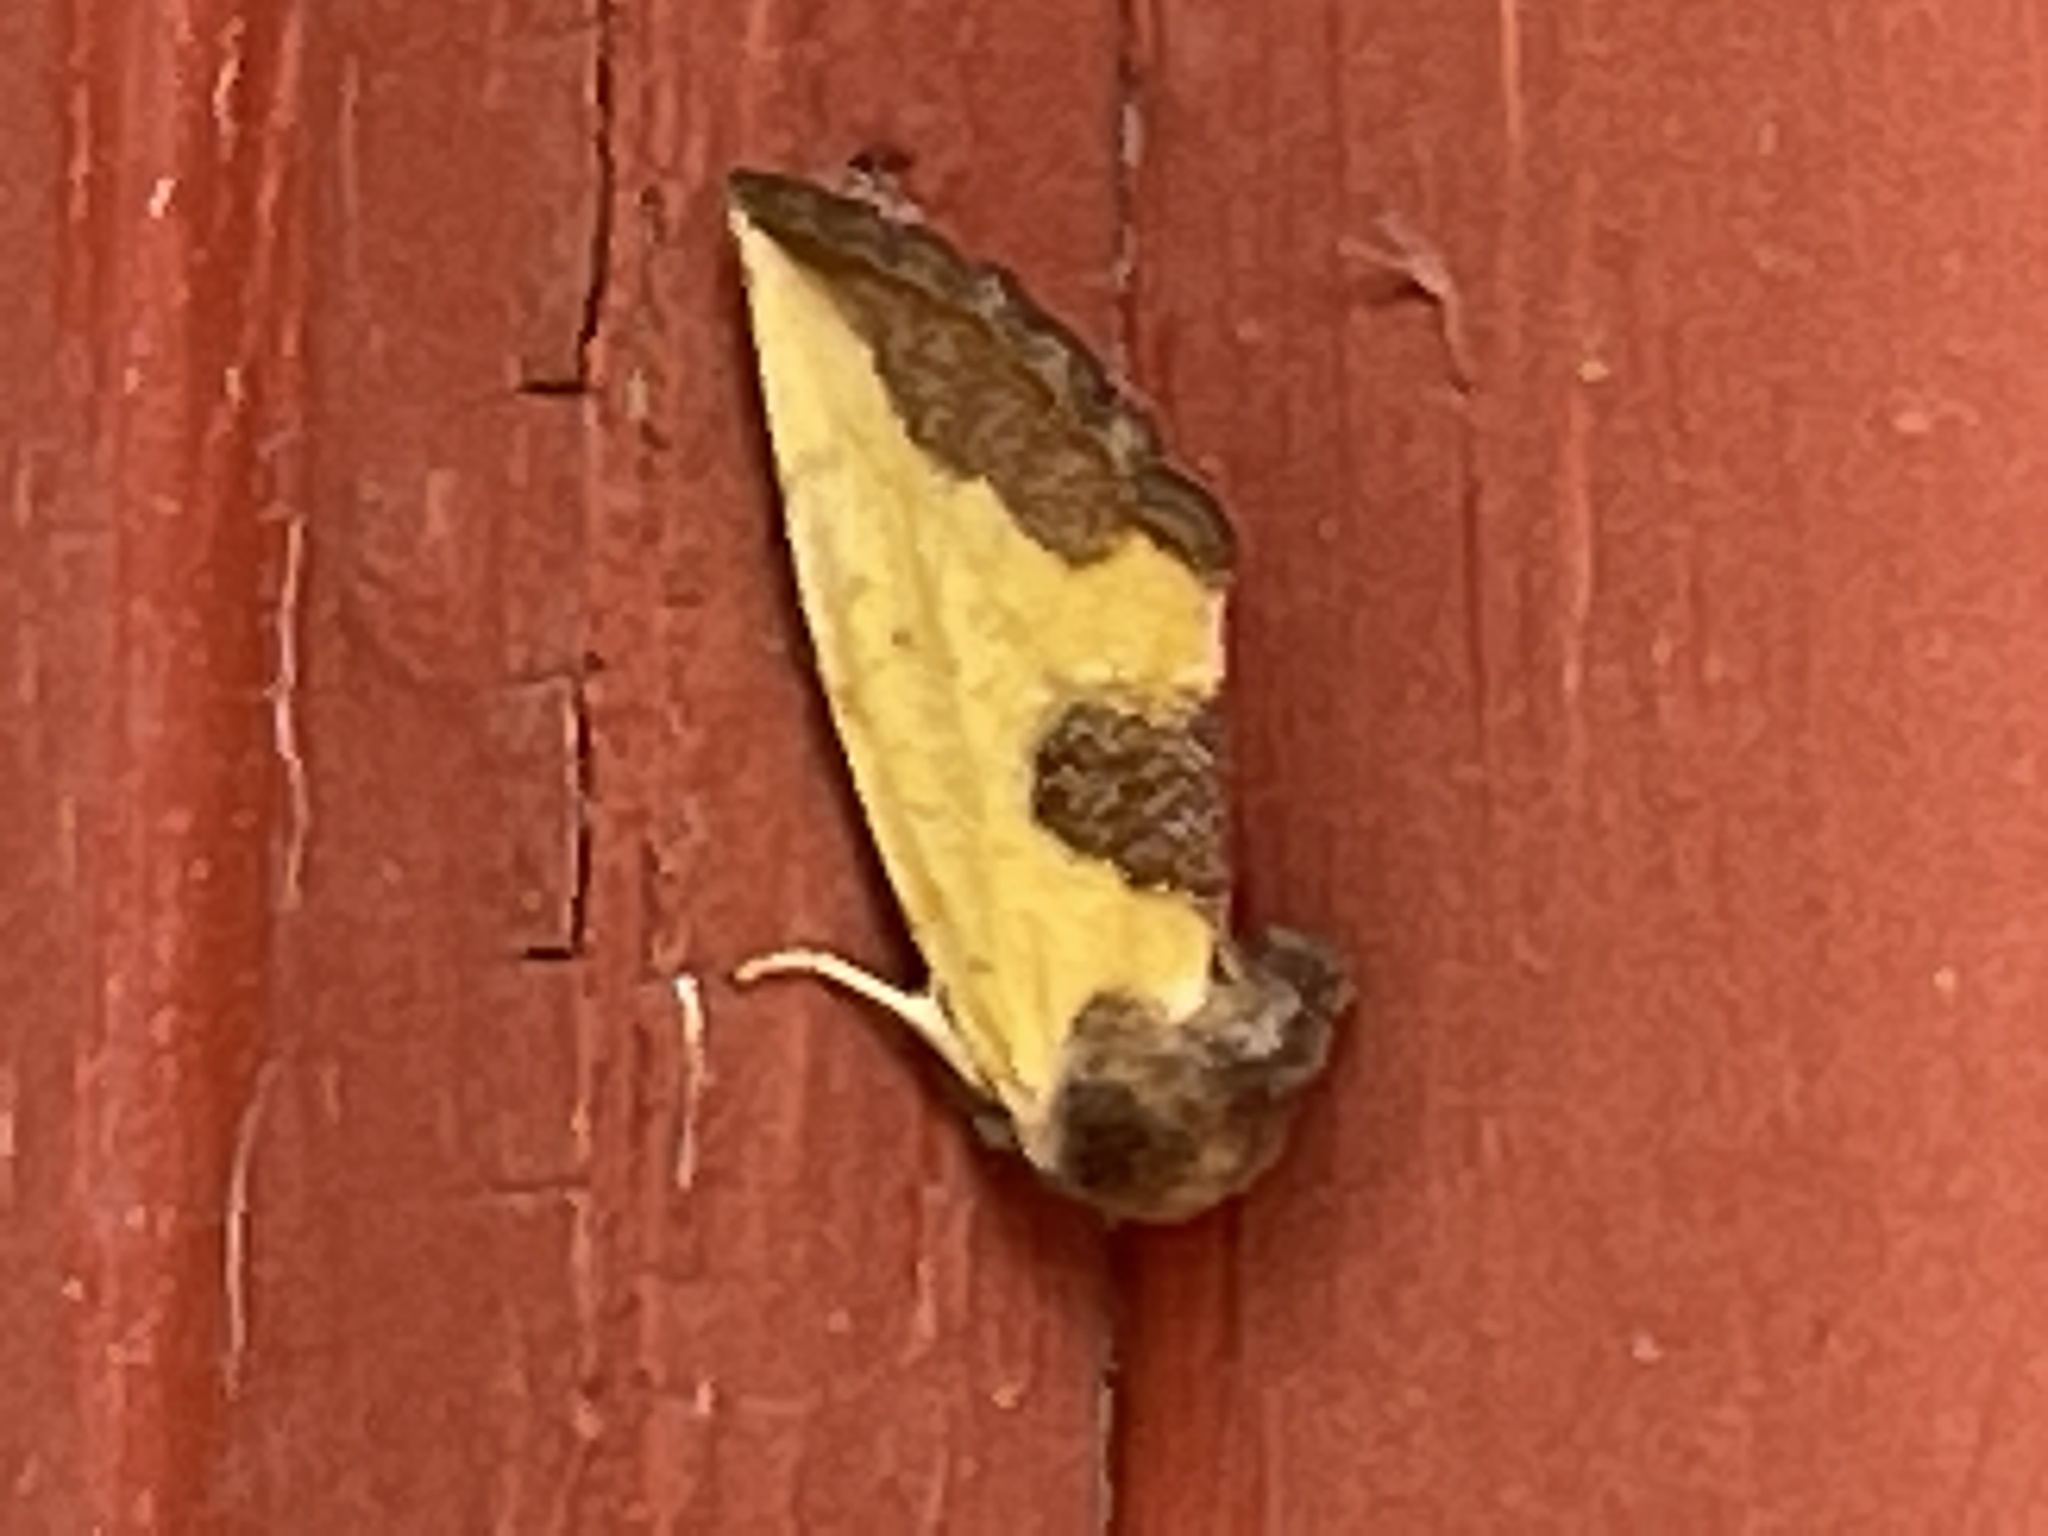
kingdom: Animalia
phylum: Arthropoda
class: Insecta
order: Lepidoptera
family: Noctuidae
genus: Stiria
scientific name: Stiria rugifrons
